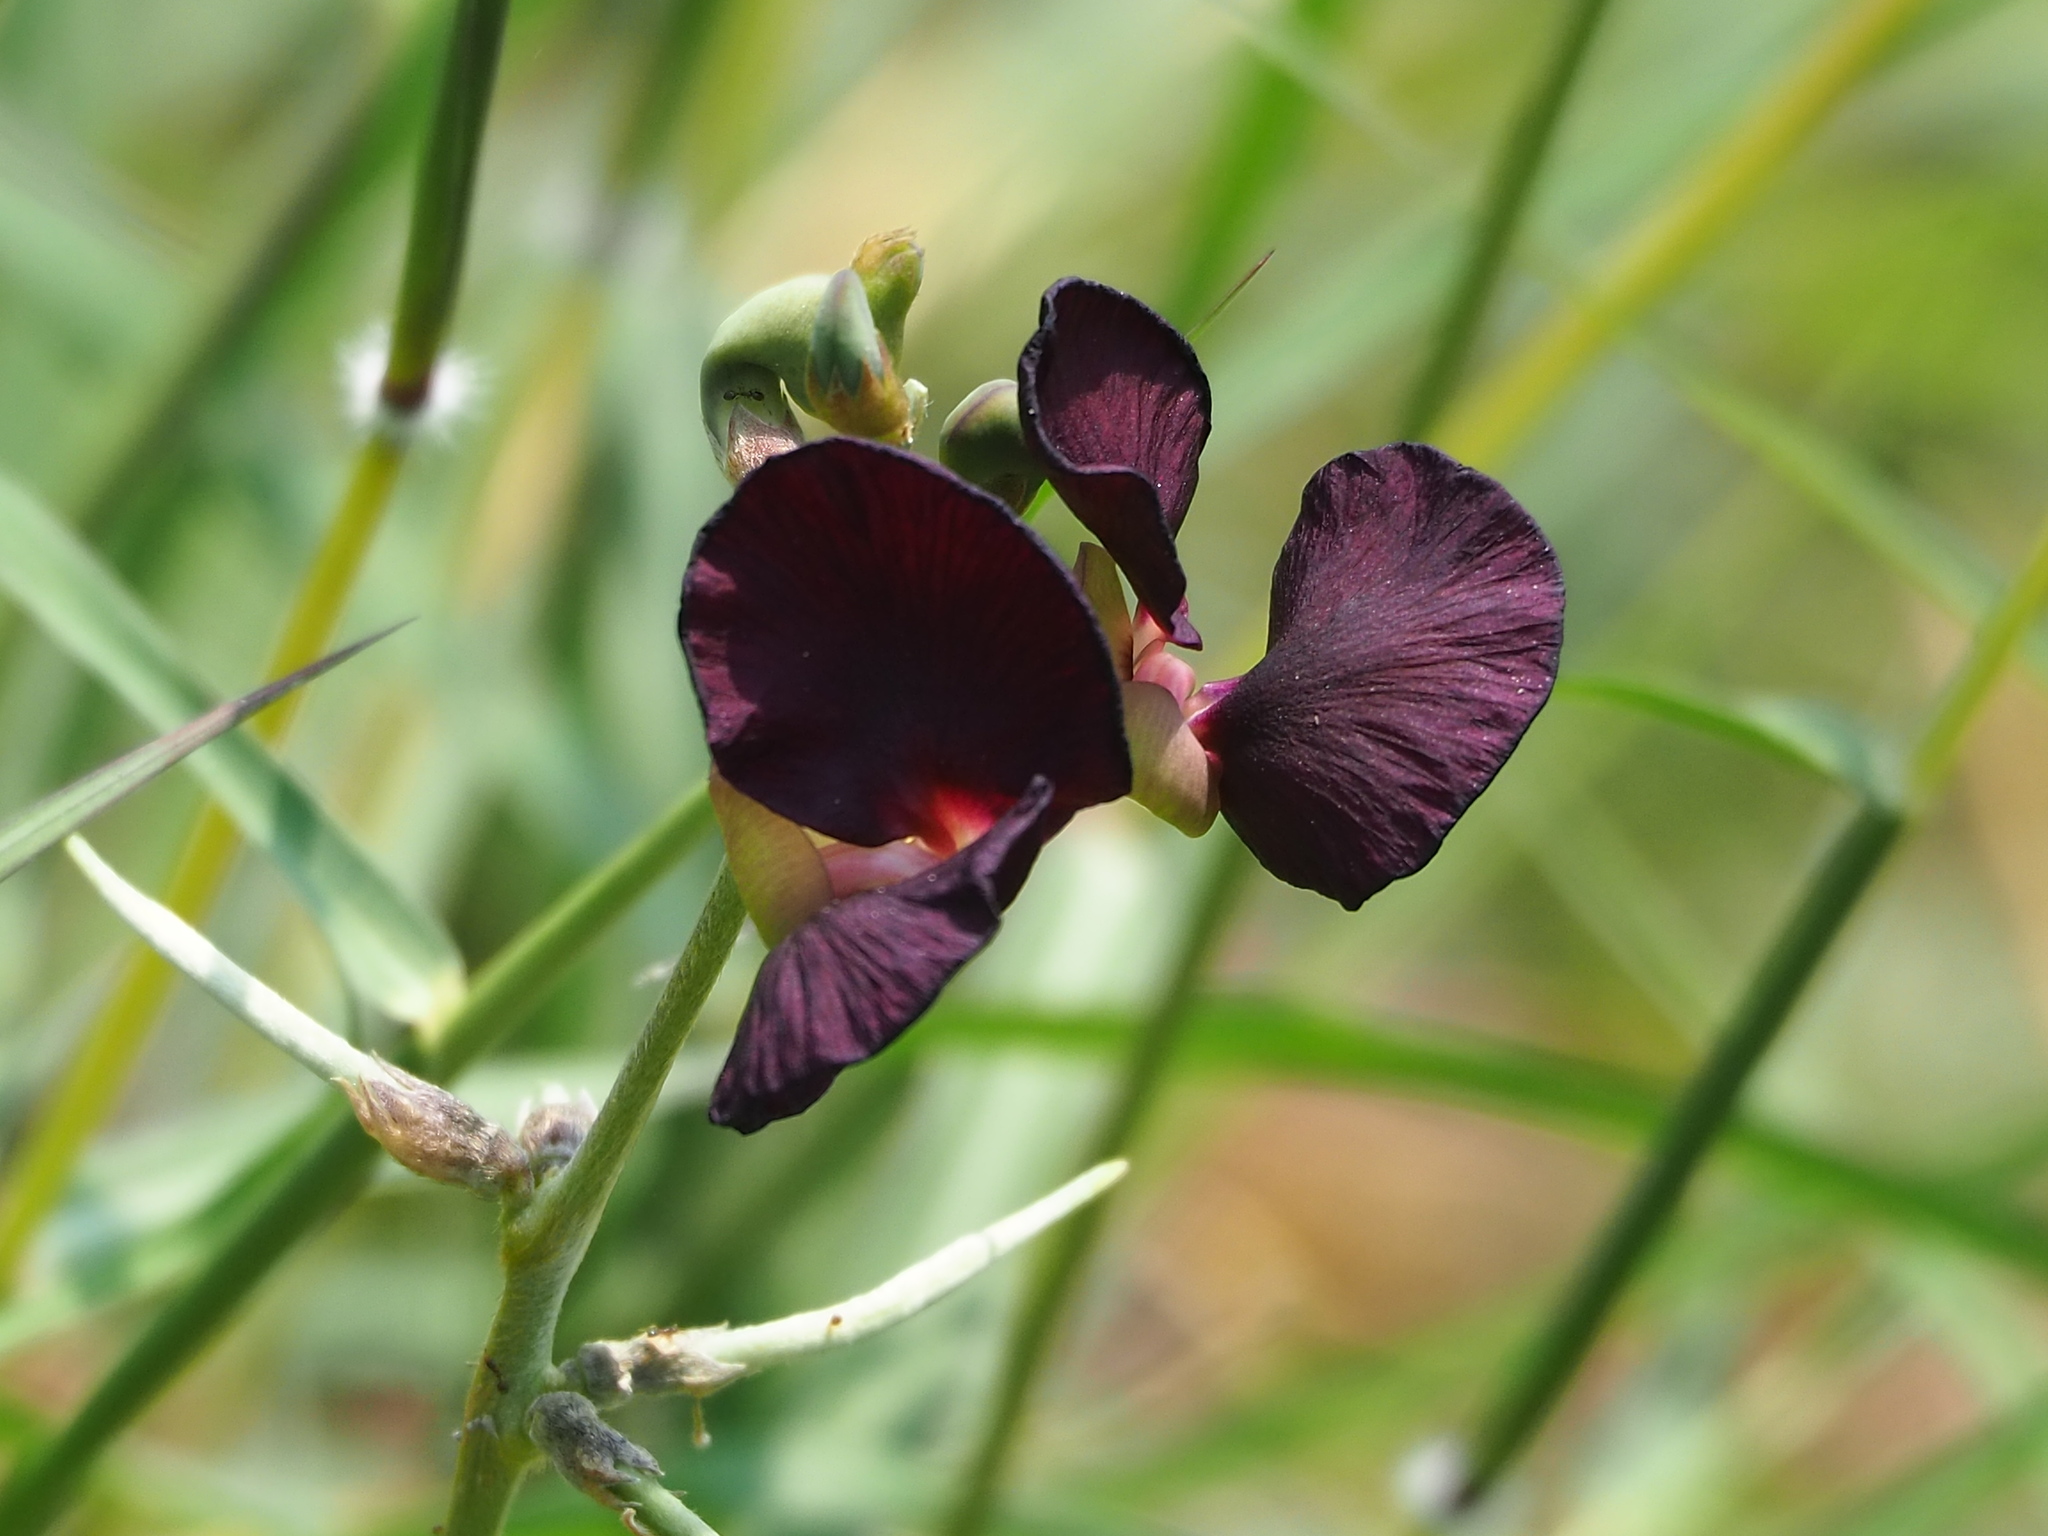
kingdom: Plantae
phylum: Tracheophyta
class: Magnoliopsida
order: Fabales
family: Fabaceae
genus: Macroptilium
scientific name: Macroptilium atropurpureum
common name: Purple bushbean
